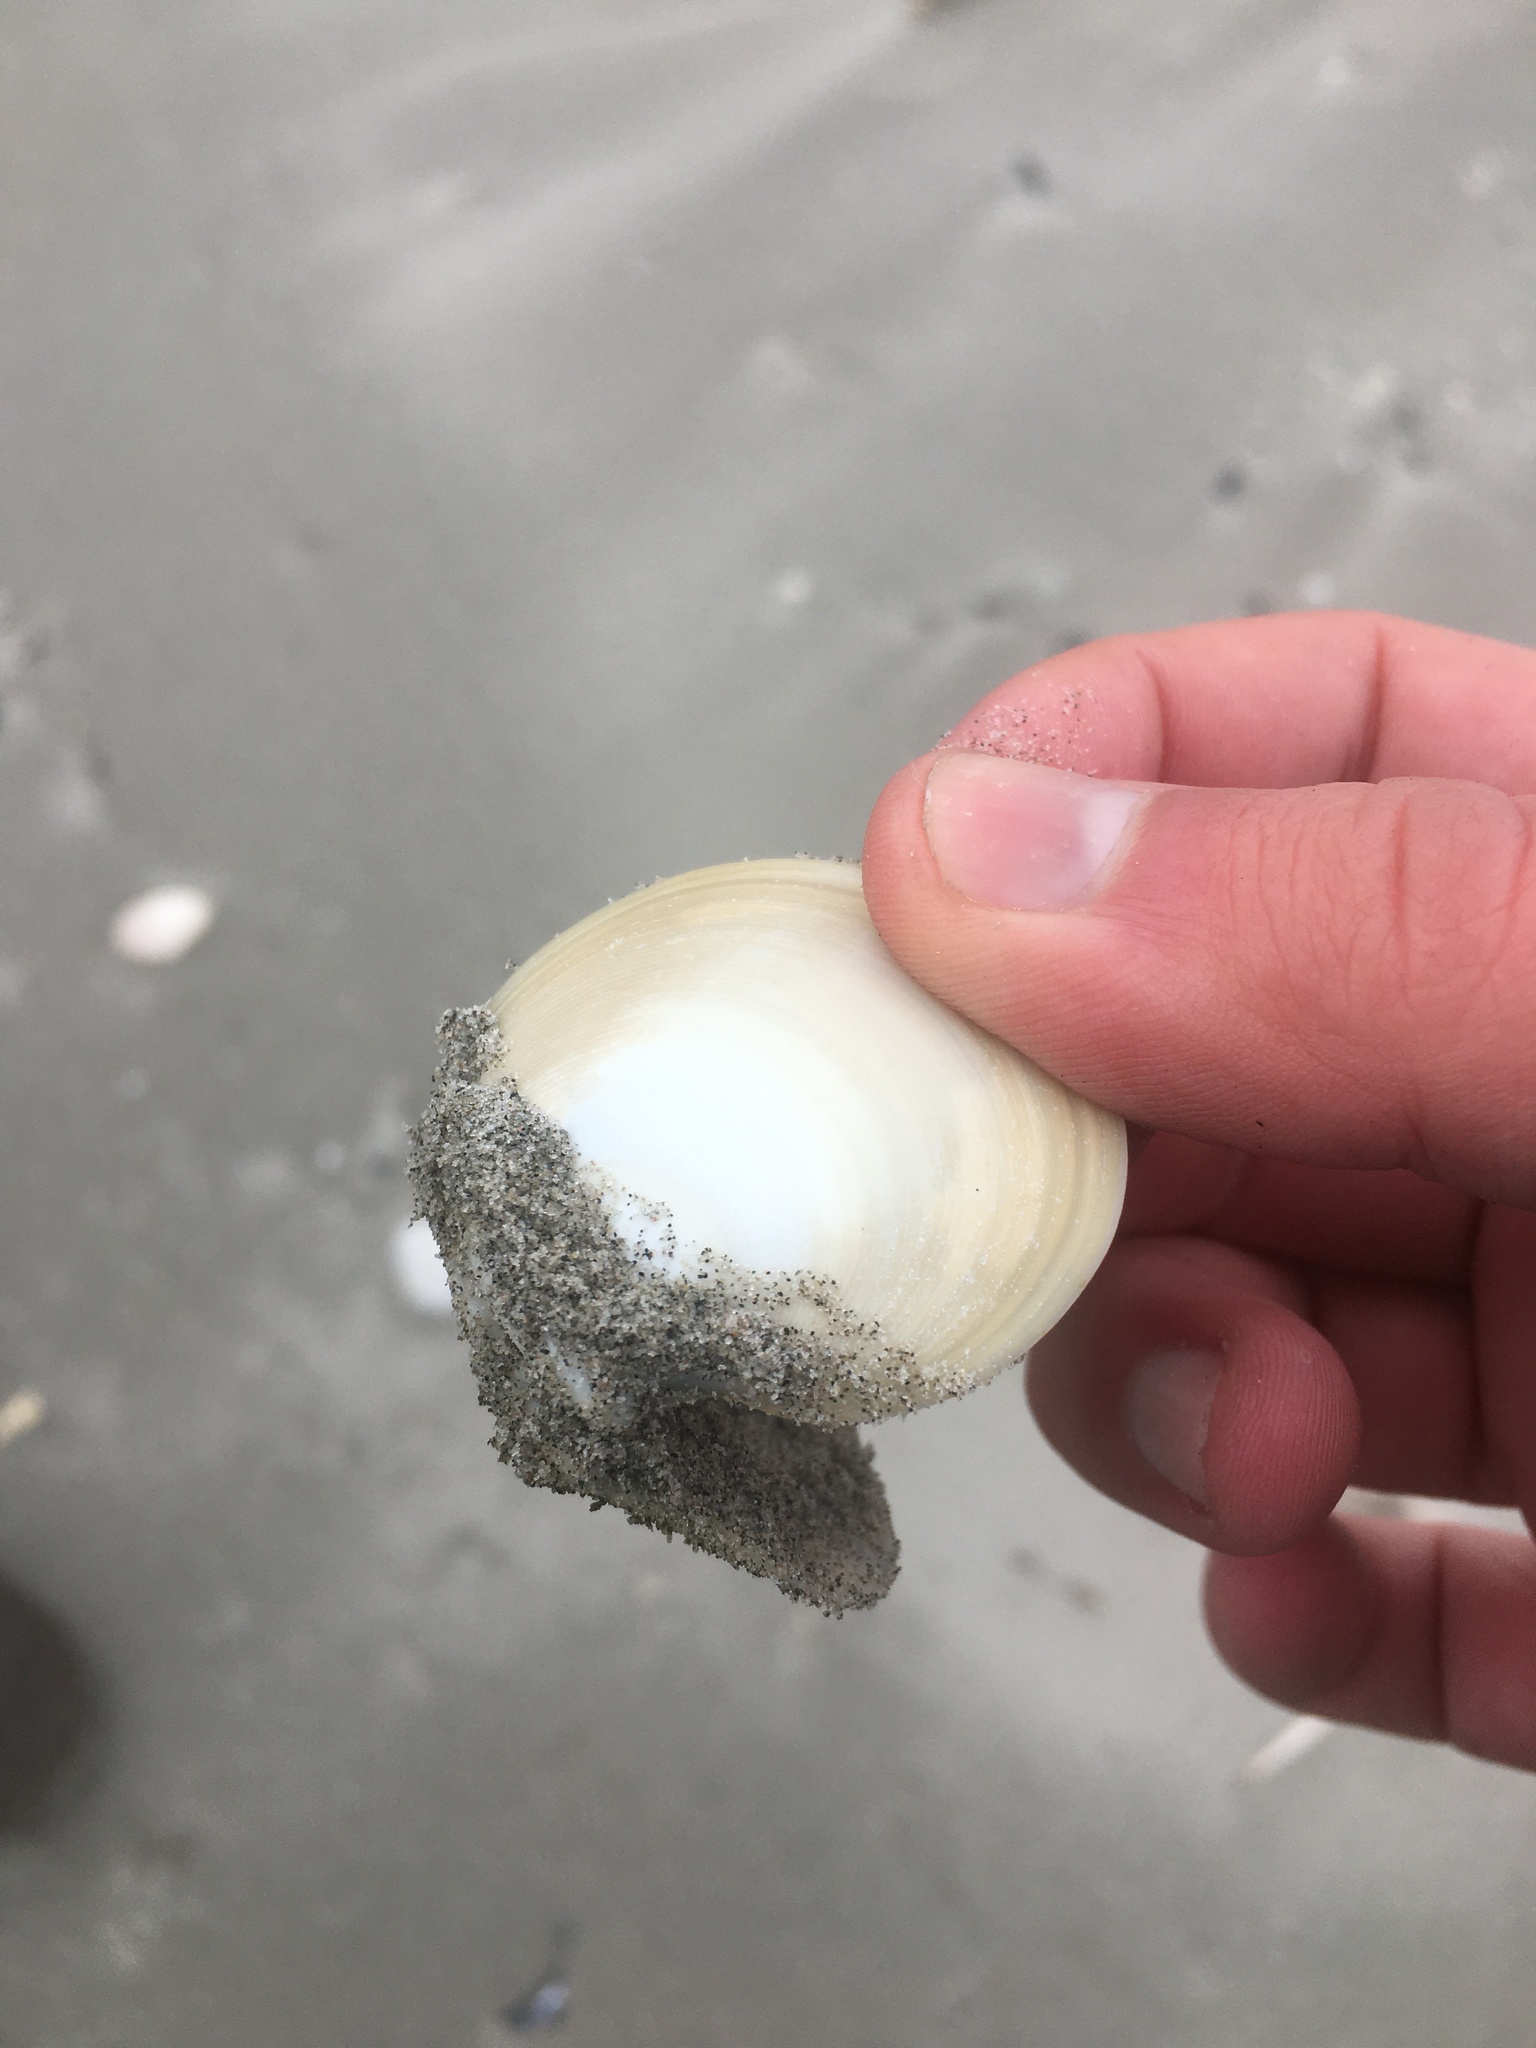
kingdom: Animalia
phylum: Mollusca
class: Bivalvia
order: Venerida
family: Veneridae
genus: Dosinia
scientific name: Dosinia discus
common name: Disk dosinia
